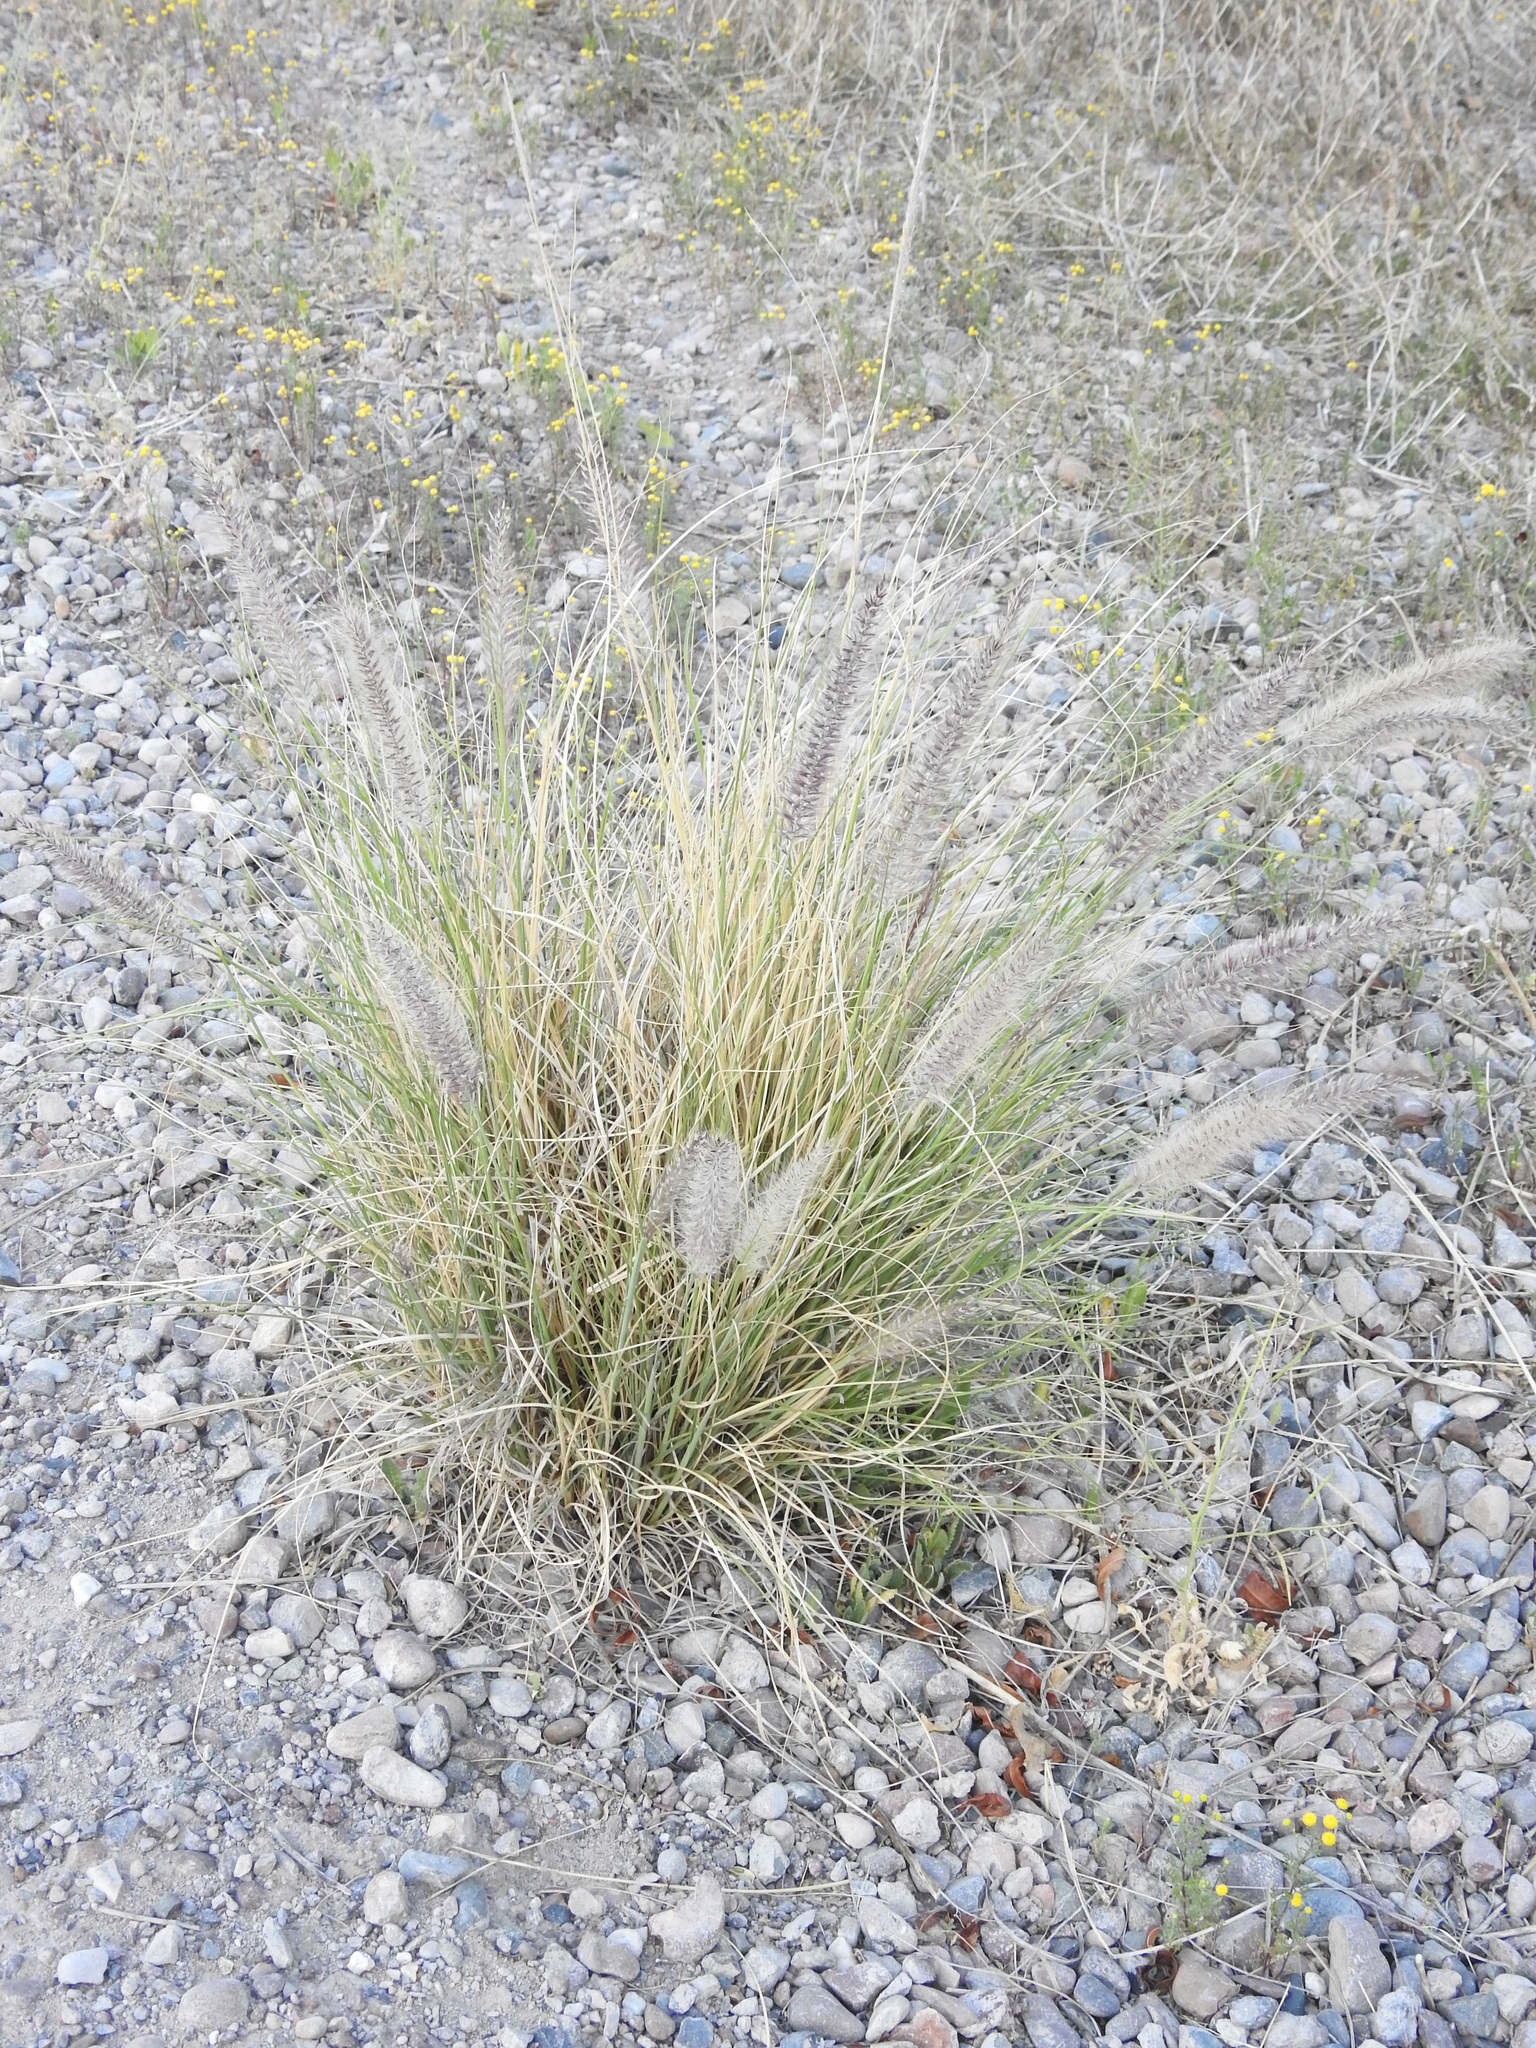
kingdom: Plantae
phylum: Tracheophyta
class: Liliopsida
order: Poales
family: Poaceae
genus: Cenchrus
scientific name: Cenchrus setaceus
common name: Crimson fountaingrass
